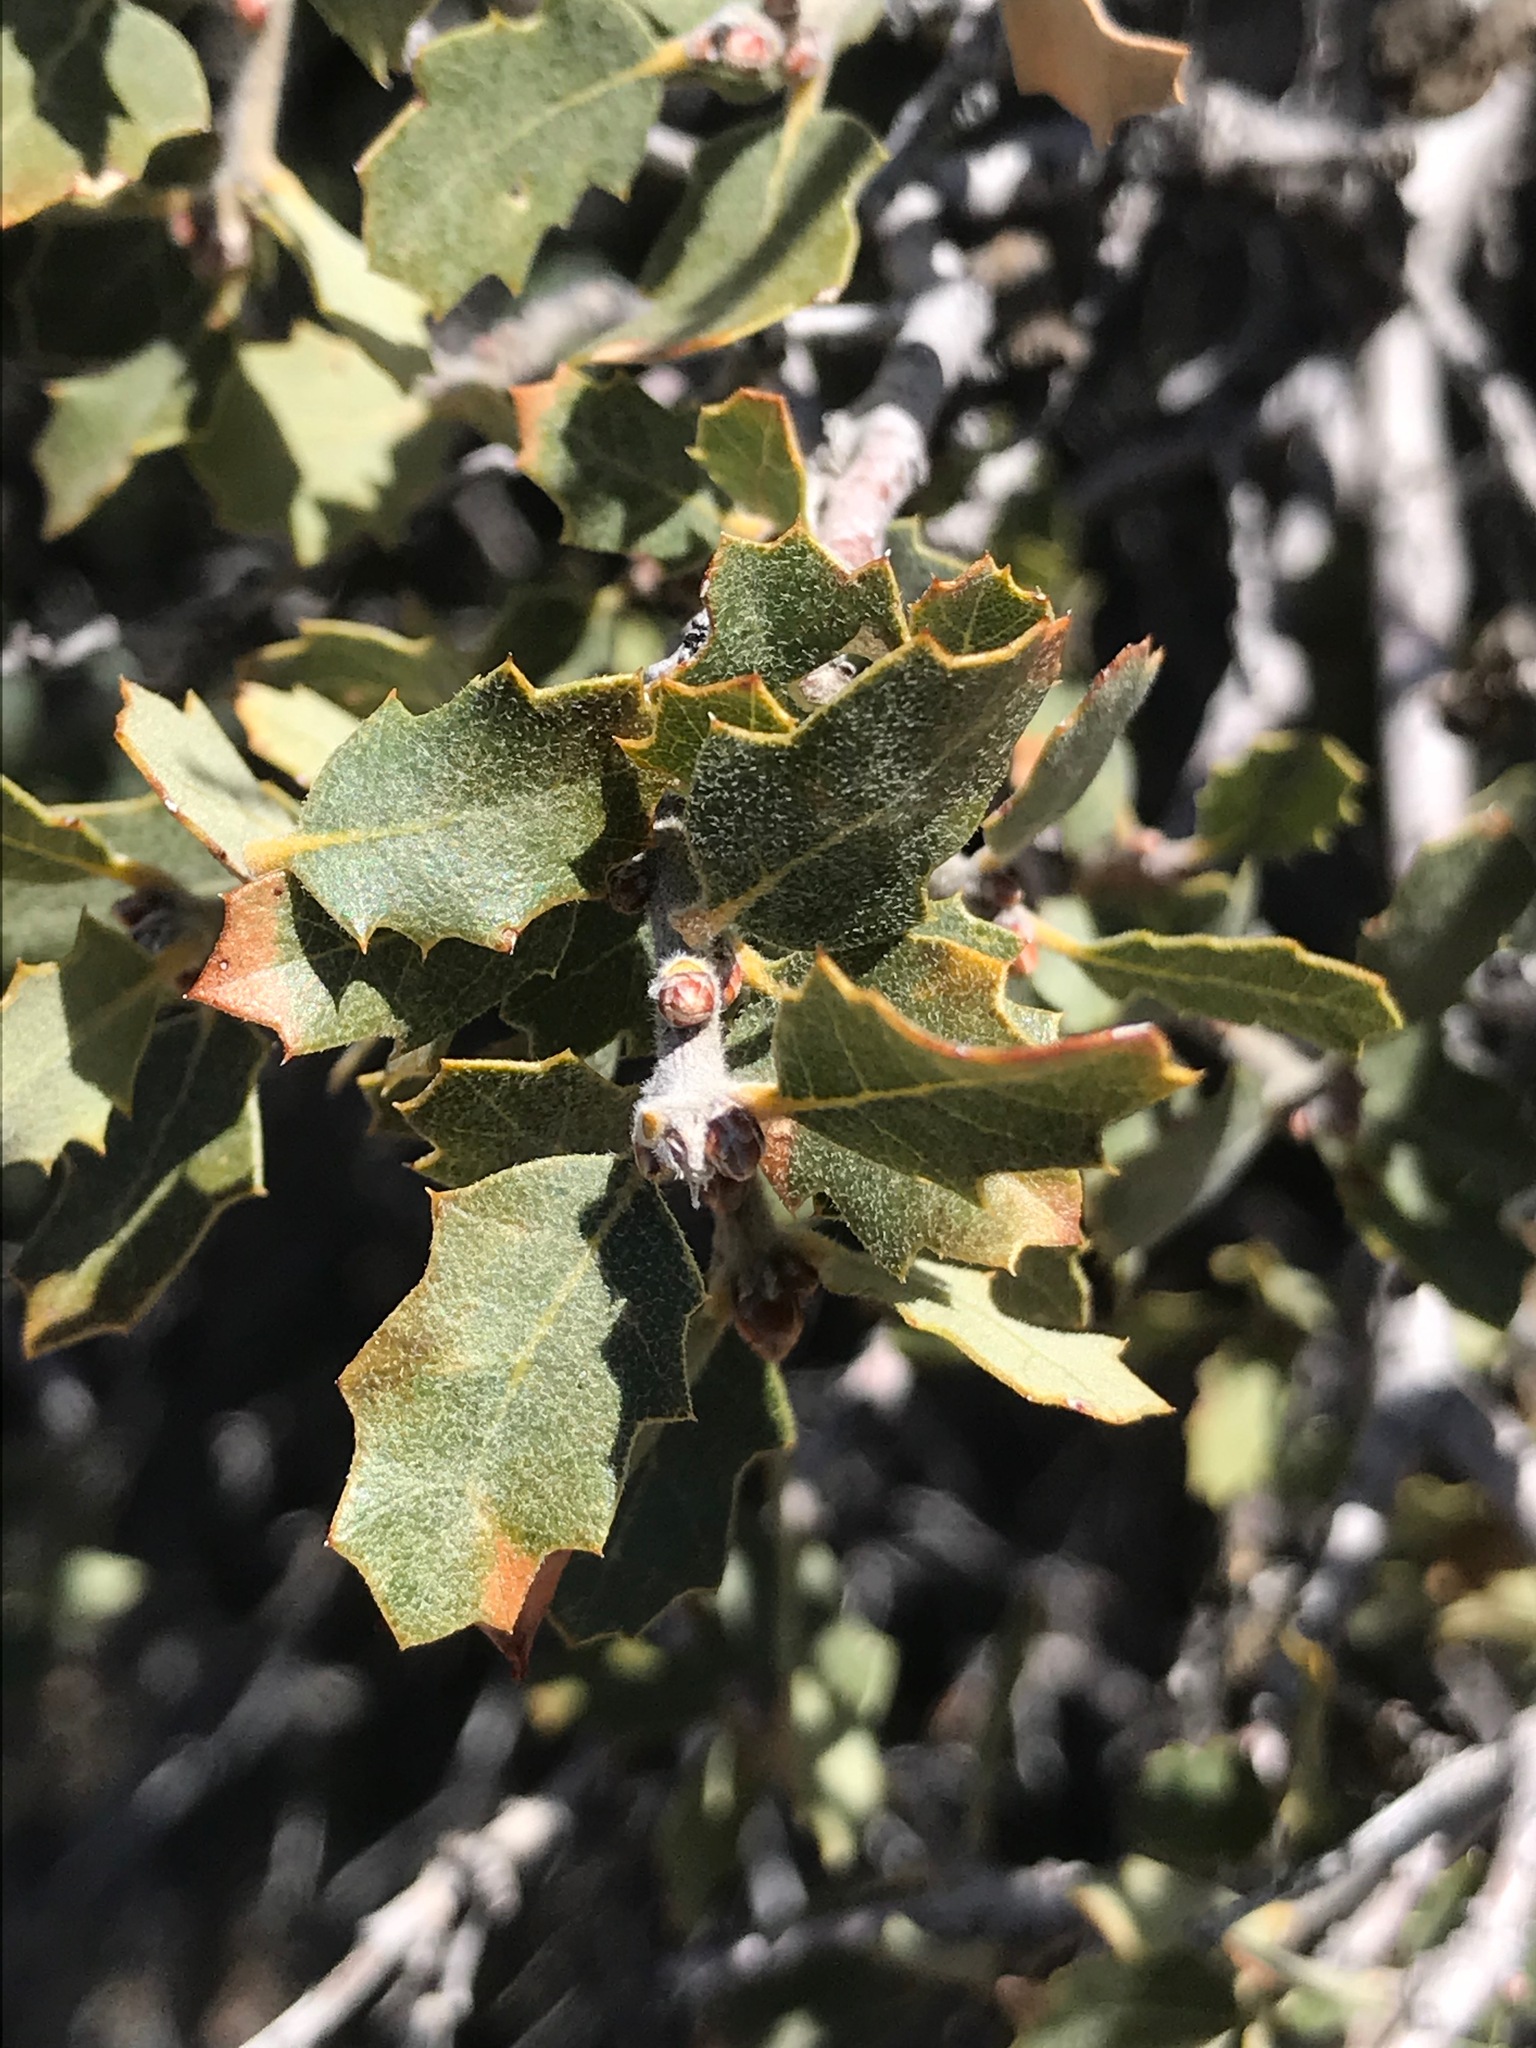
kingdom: Plantae
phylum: Tracheophyta
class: Magnoliopsida
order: Fagales
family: Fagaceae
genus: Quercus
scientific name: Quercus john-tuckeri
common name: Tucker's oak
